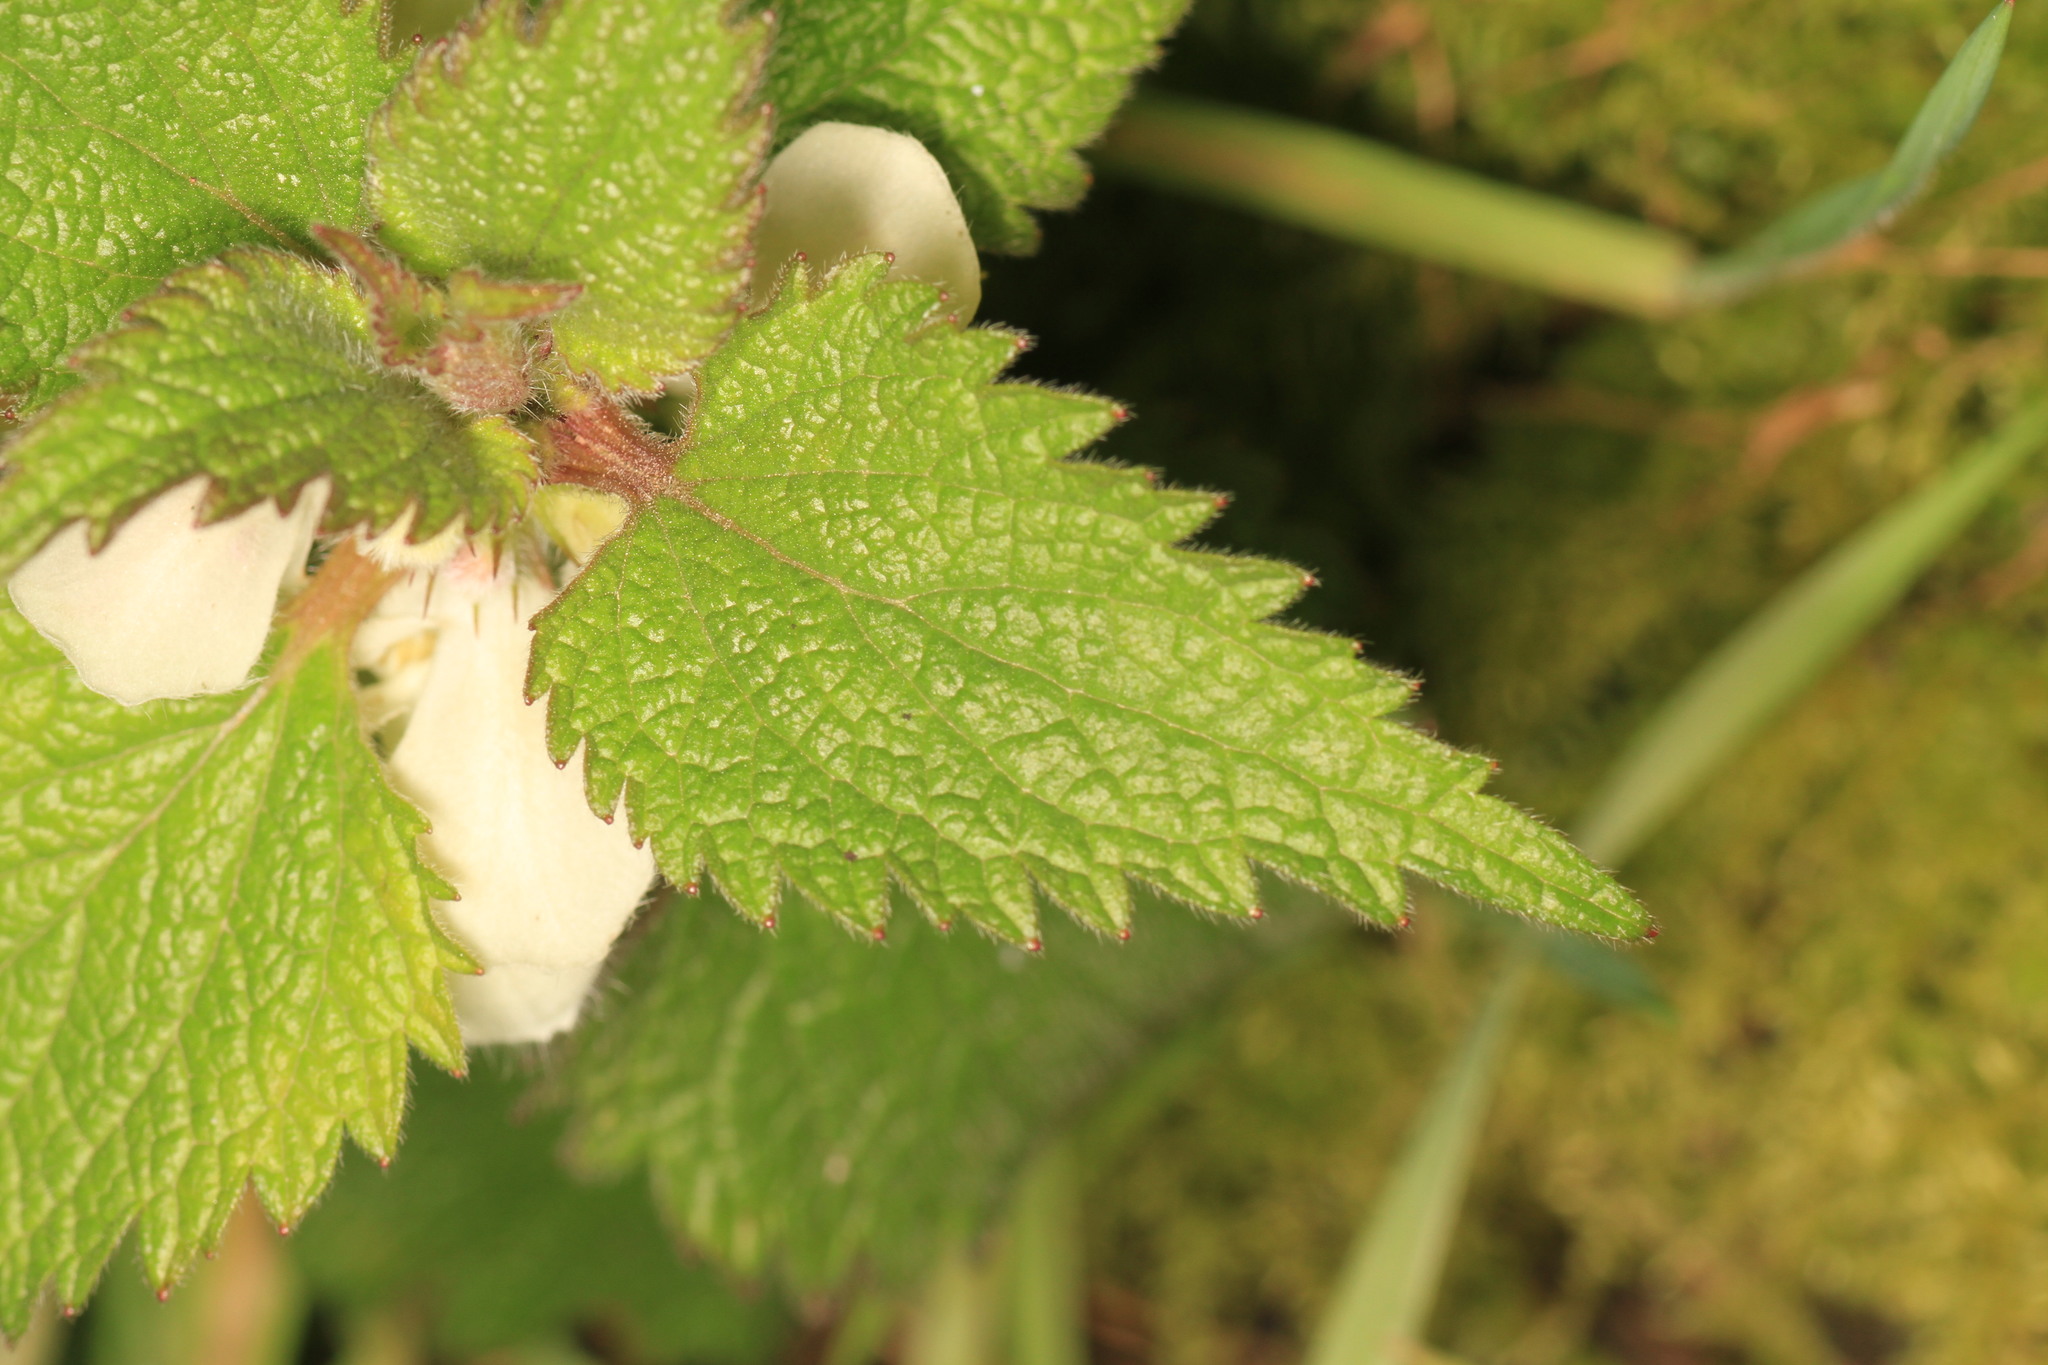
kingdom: Plantae
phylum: Tracheophyta
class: Magnoliopsida
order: Lamiales
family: Lamiaceae
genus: Lamium
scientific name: Lamium album
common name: White dead-nettle
